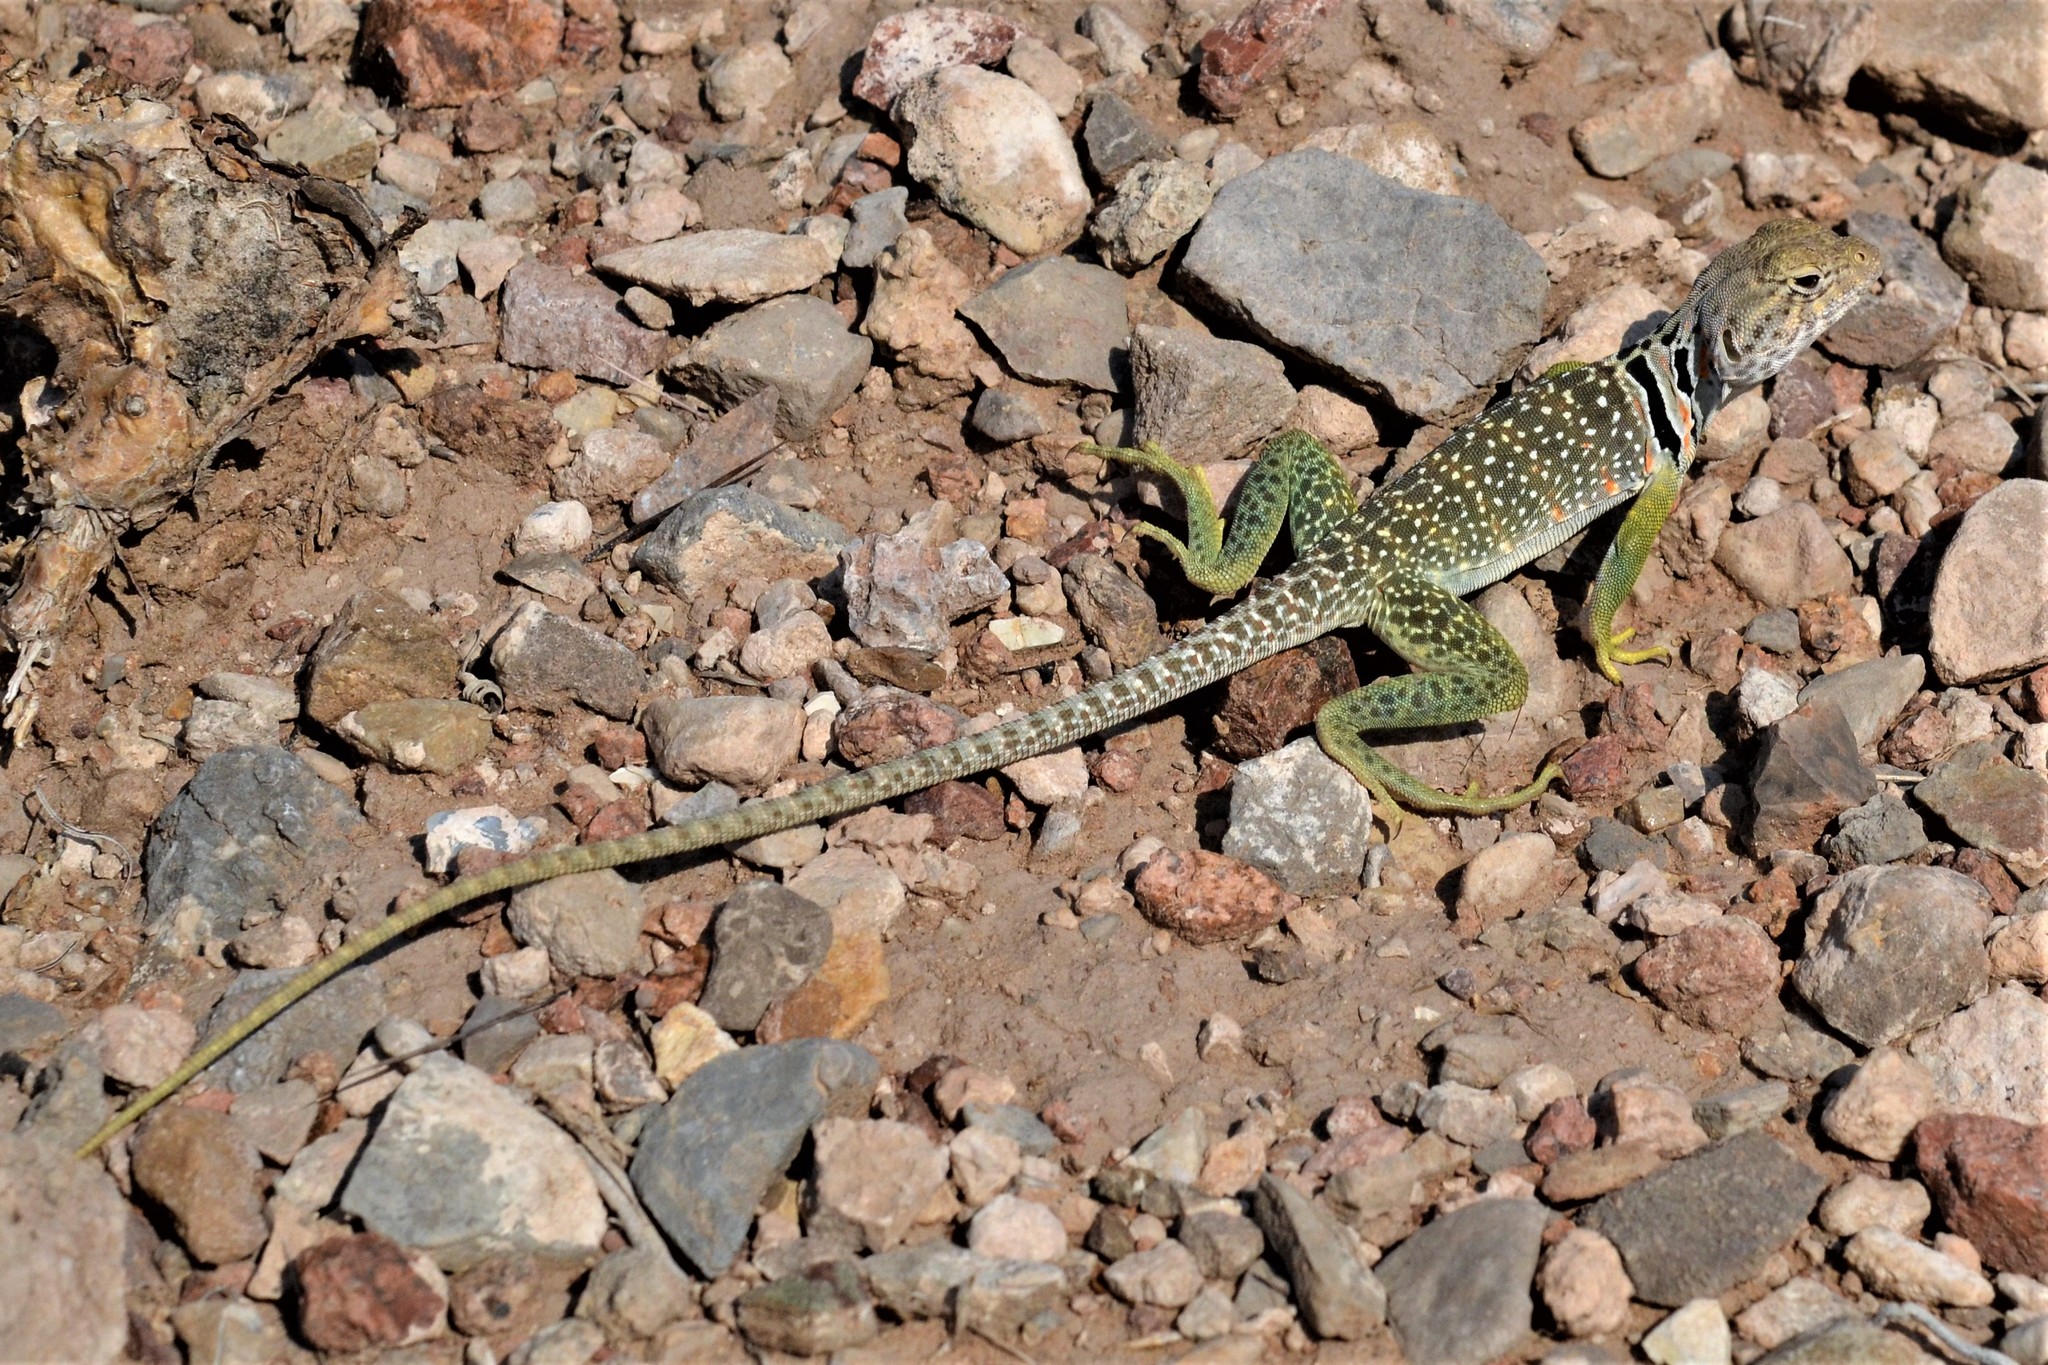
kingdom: Animalia
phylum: Chordata
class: Squamata
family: Crotaphytidae
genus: Crotaphytus
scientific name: Crotaphytus collaris
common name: Collared lizard
